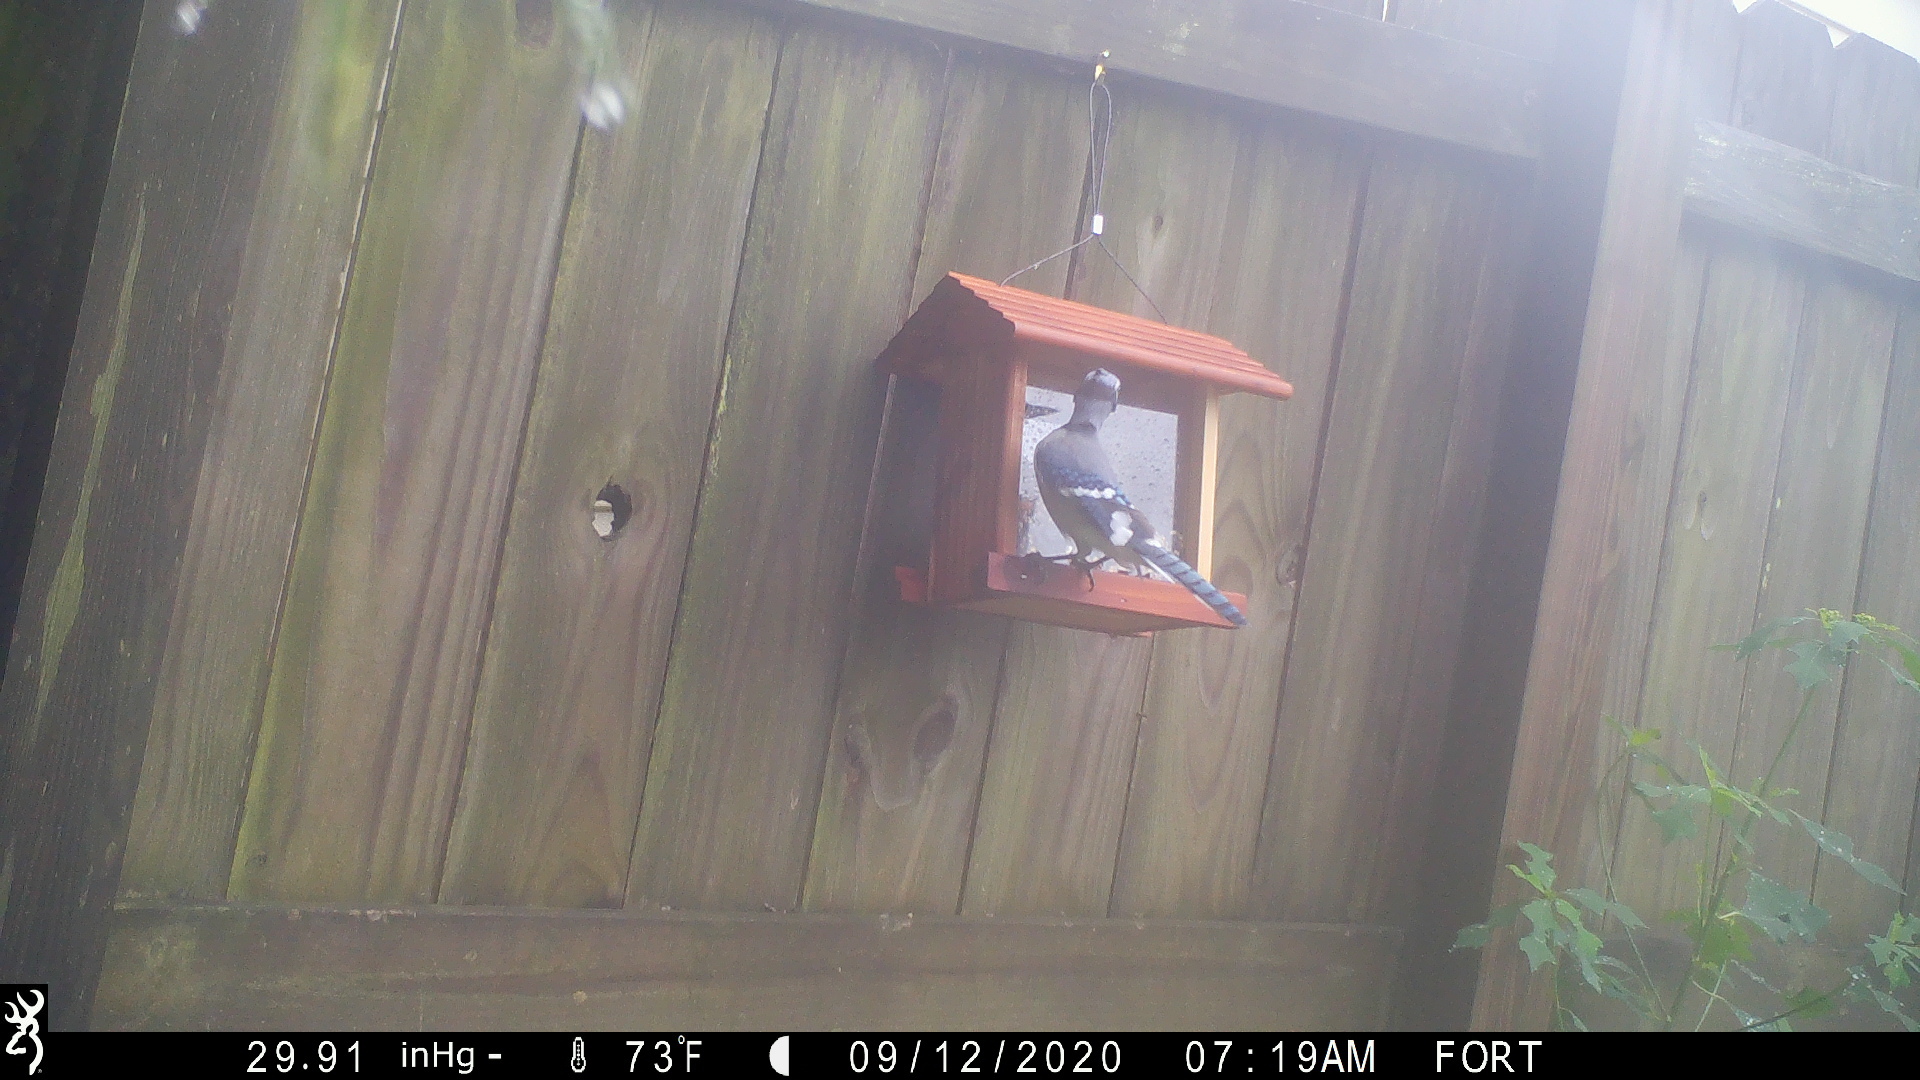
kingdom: Animalia
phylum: Chordata
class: Aves
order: Passeriformes
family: Corvidae
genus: Cyanocitta
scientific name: Cyanocitta cristata
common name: Blue jay
